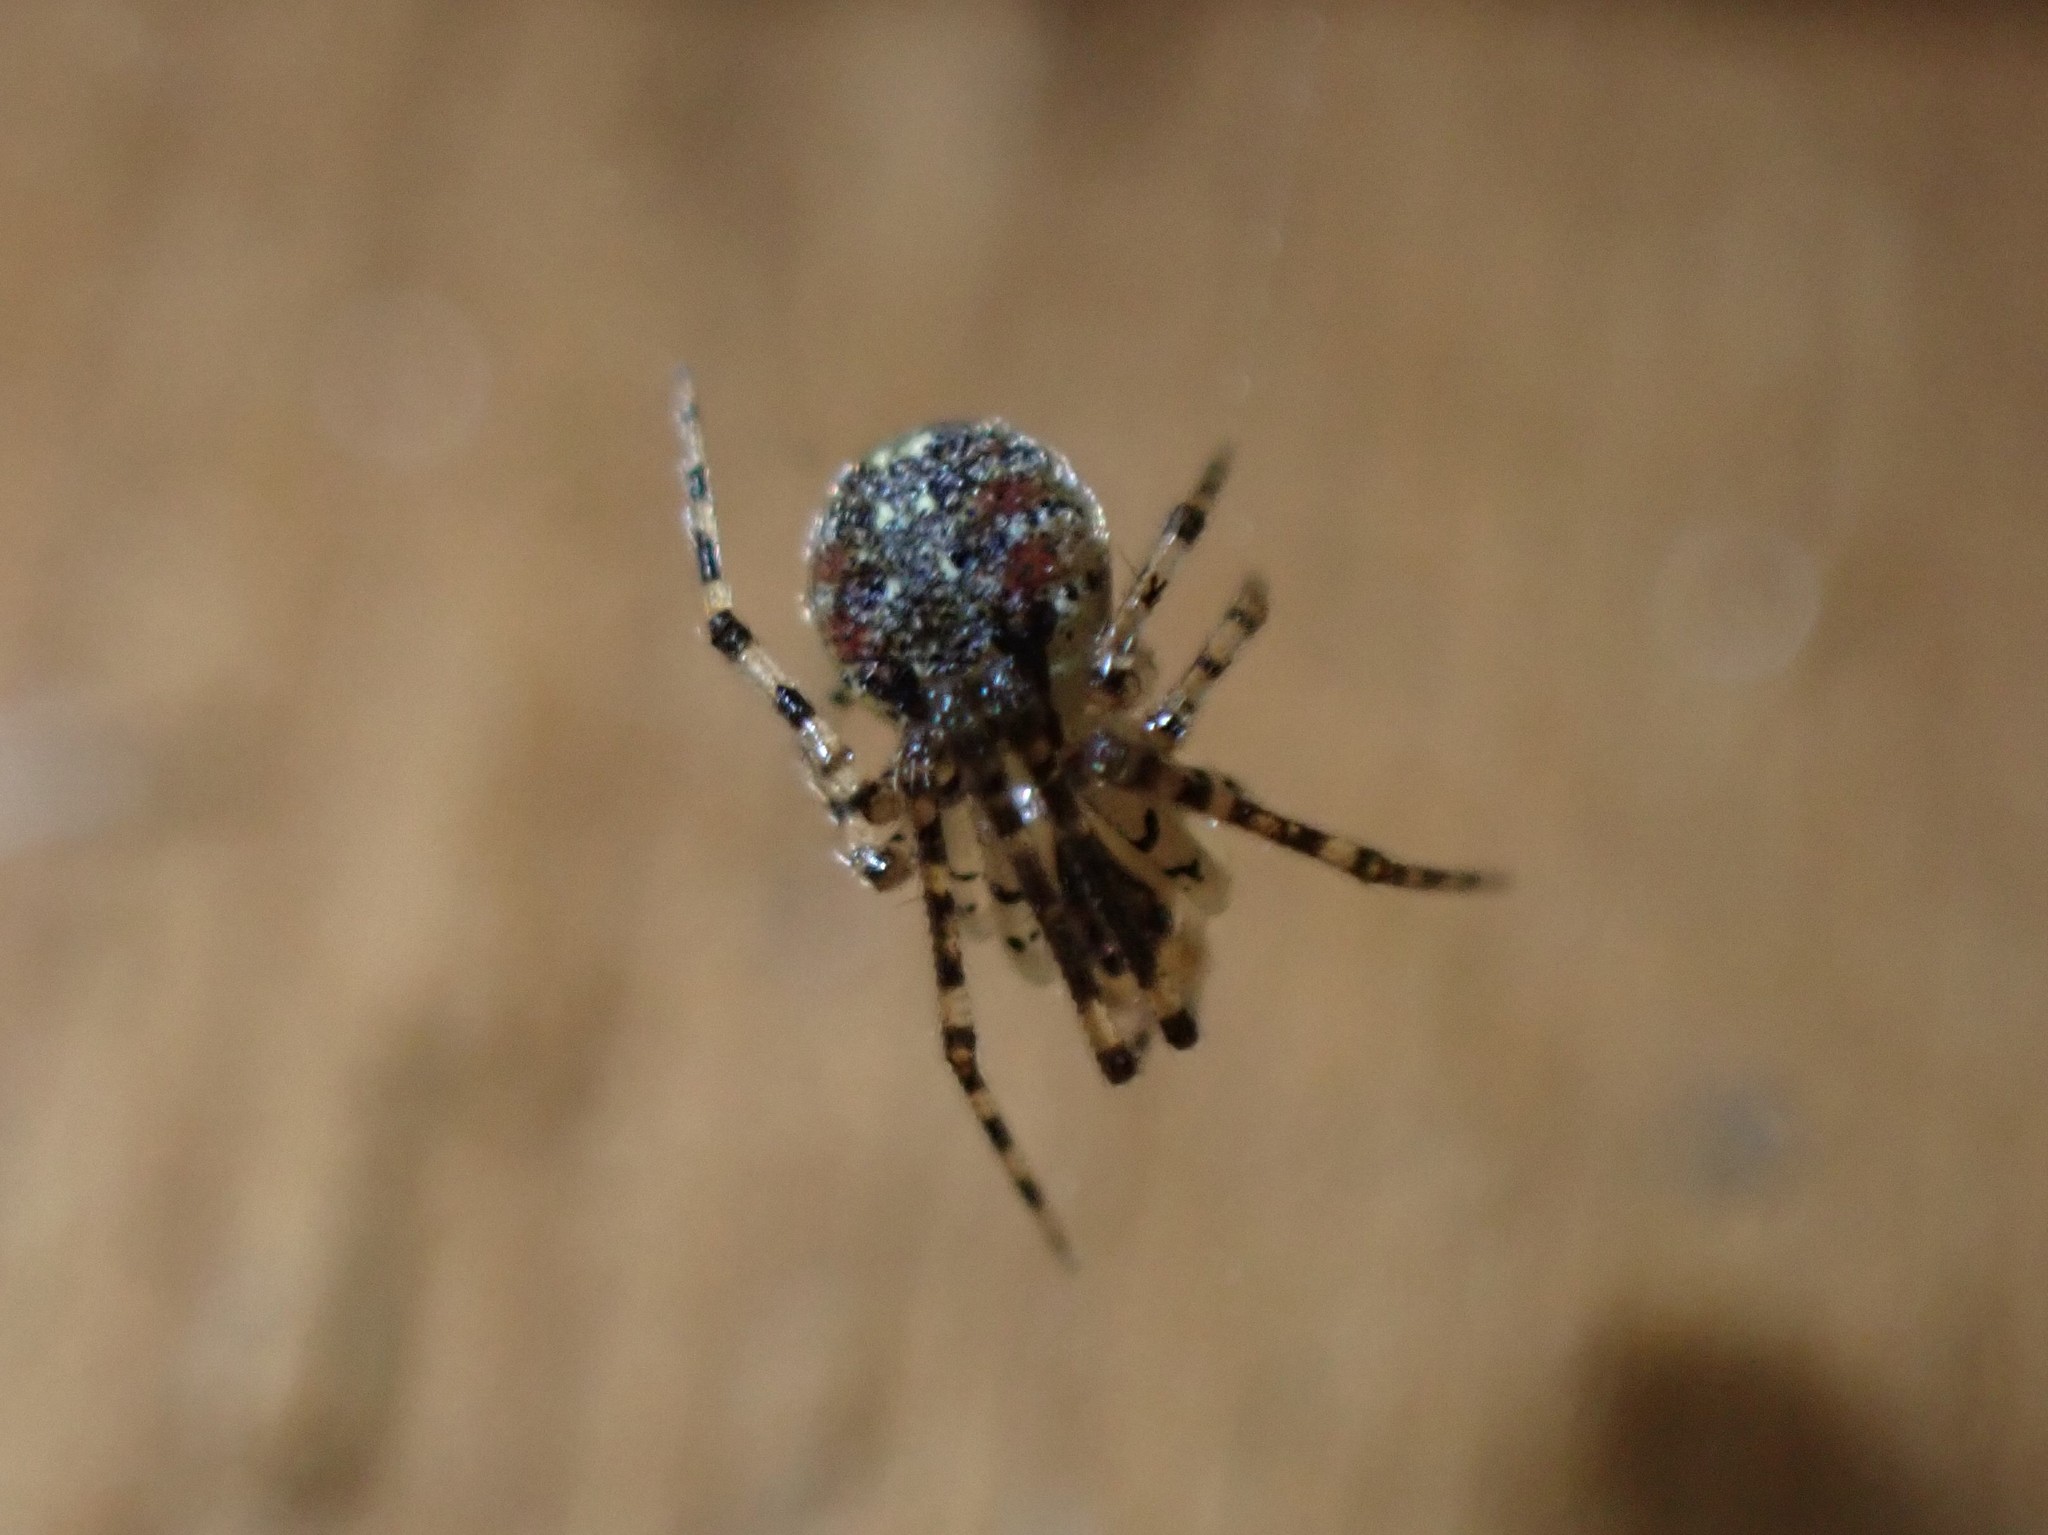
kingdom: Animalia
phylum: Arthropoda
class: Arachnida
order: Araneae
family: Theridiidae
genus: Platnickina
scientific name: Platnickina tincta
